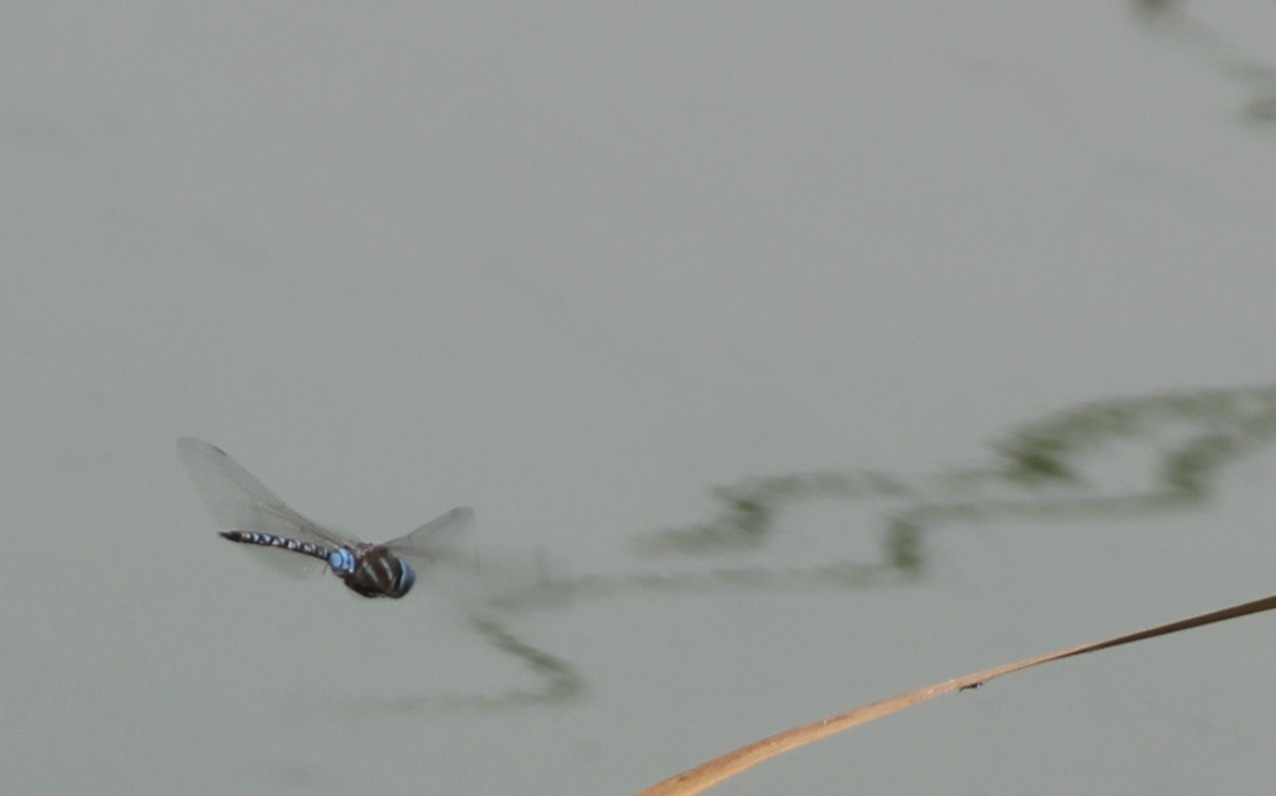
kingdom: Animalia
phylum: Arthropoda
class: Insecta
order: Odonata
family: Aeshnidae
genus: Rhionaeschna
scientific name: Rhionaeschna multicolor
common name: Blue-eyed darner
